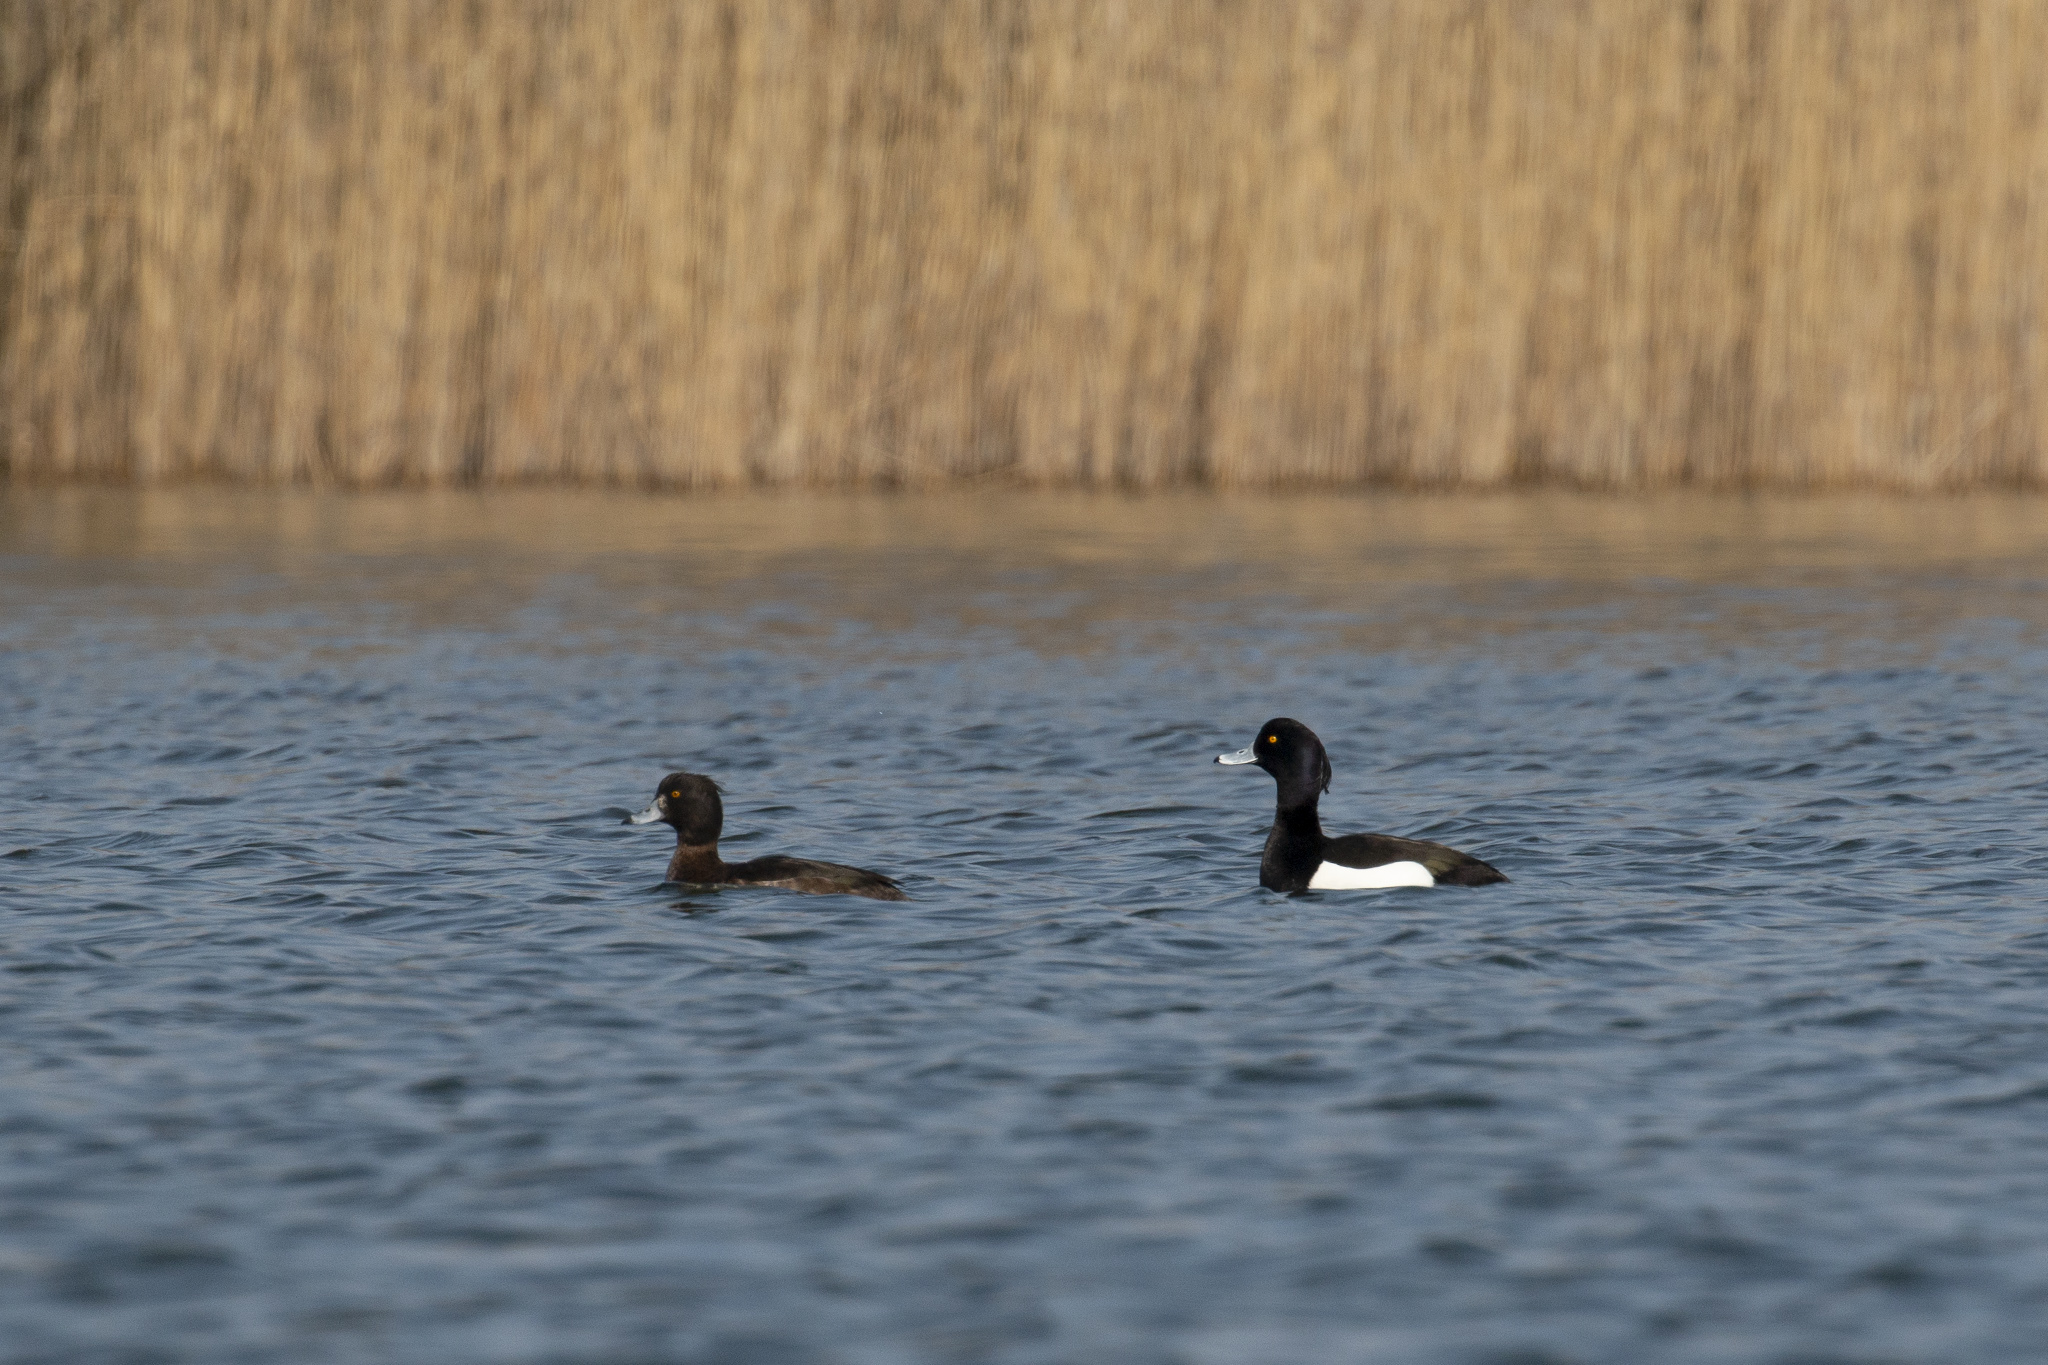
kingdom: Animalia
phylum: Chordata
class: Aves
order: Anseriformes
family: Anatidae
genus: Aythya
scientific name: Aythya fuligula
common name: Tufted duck
